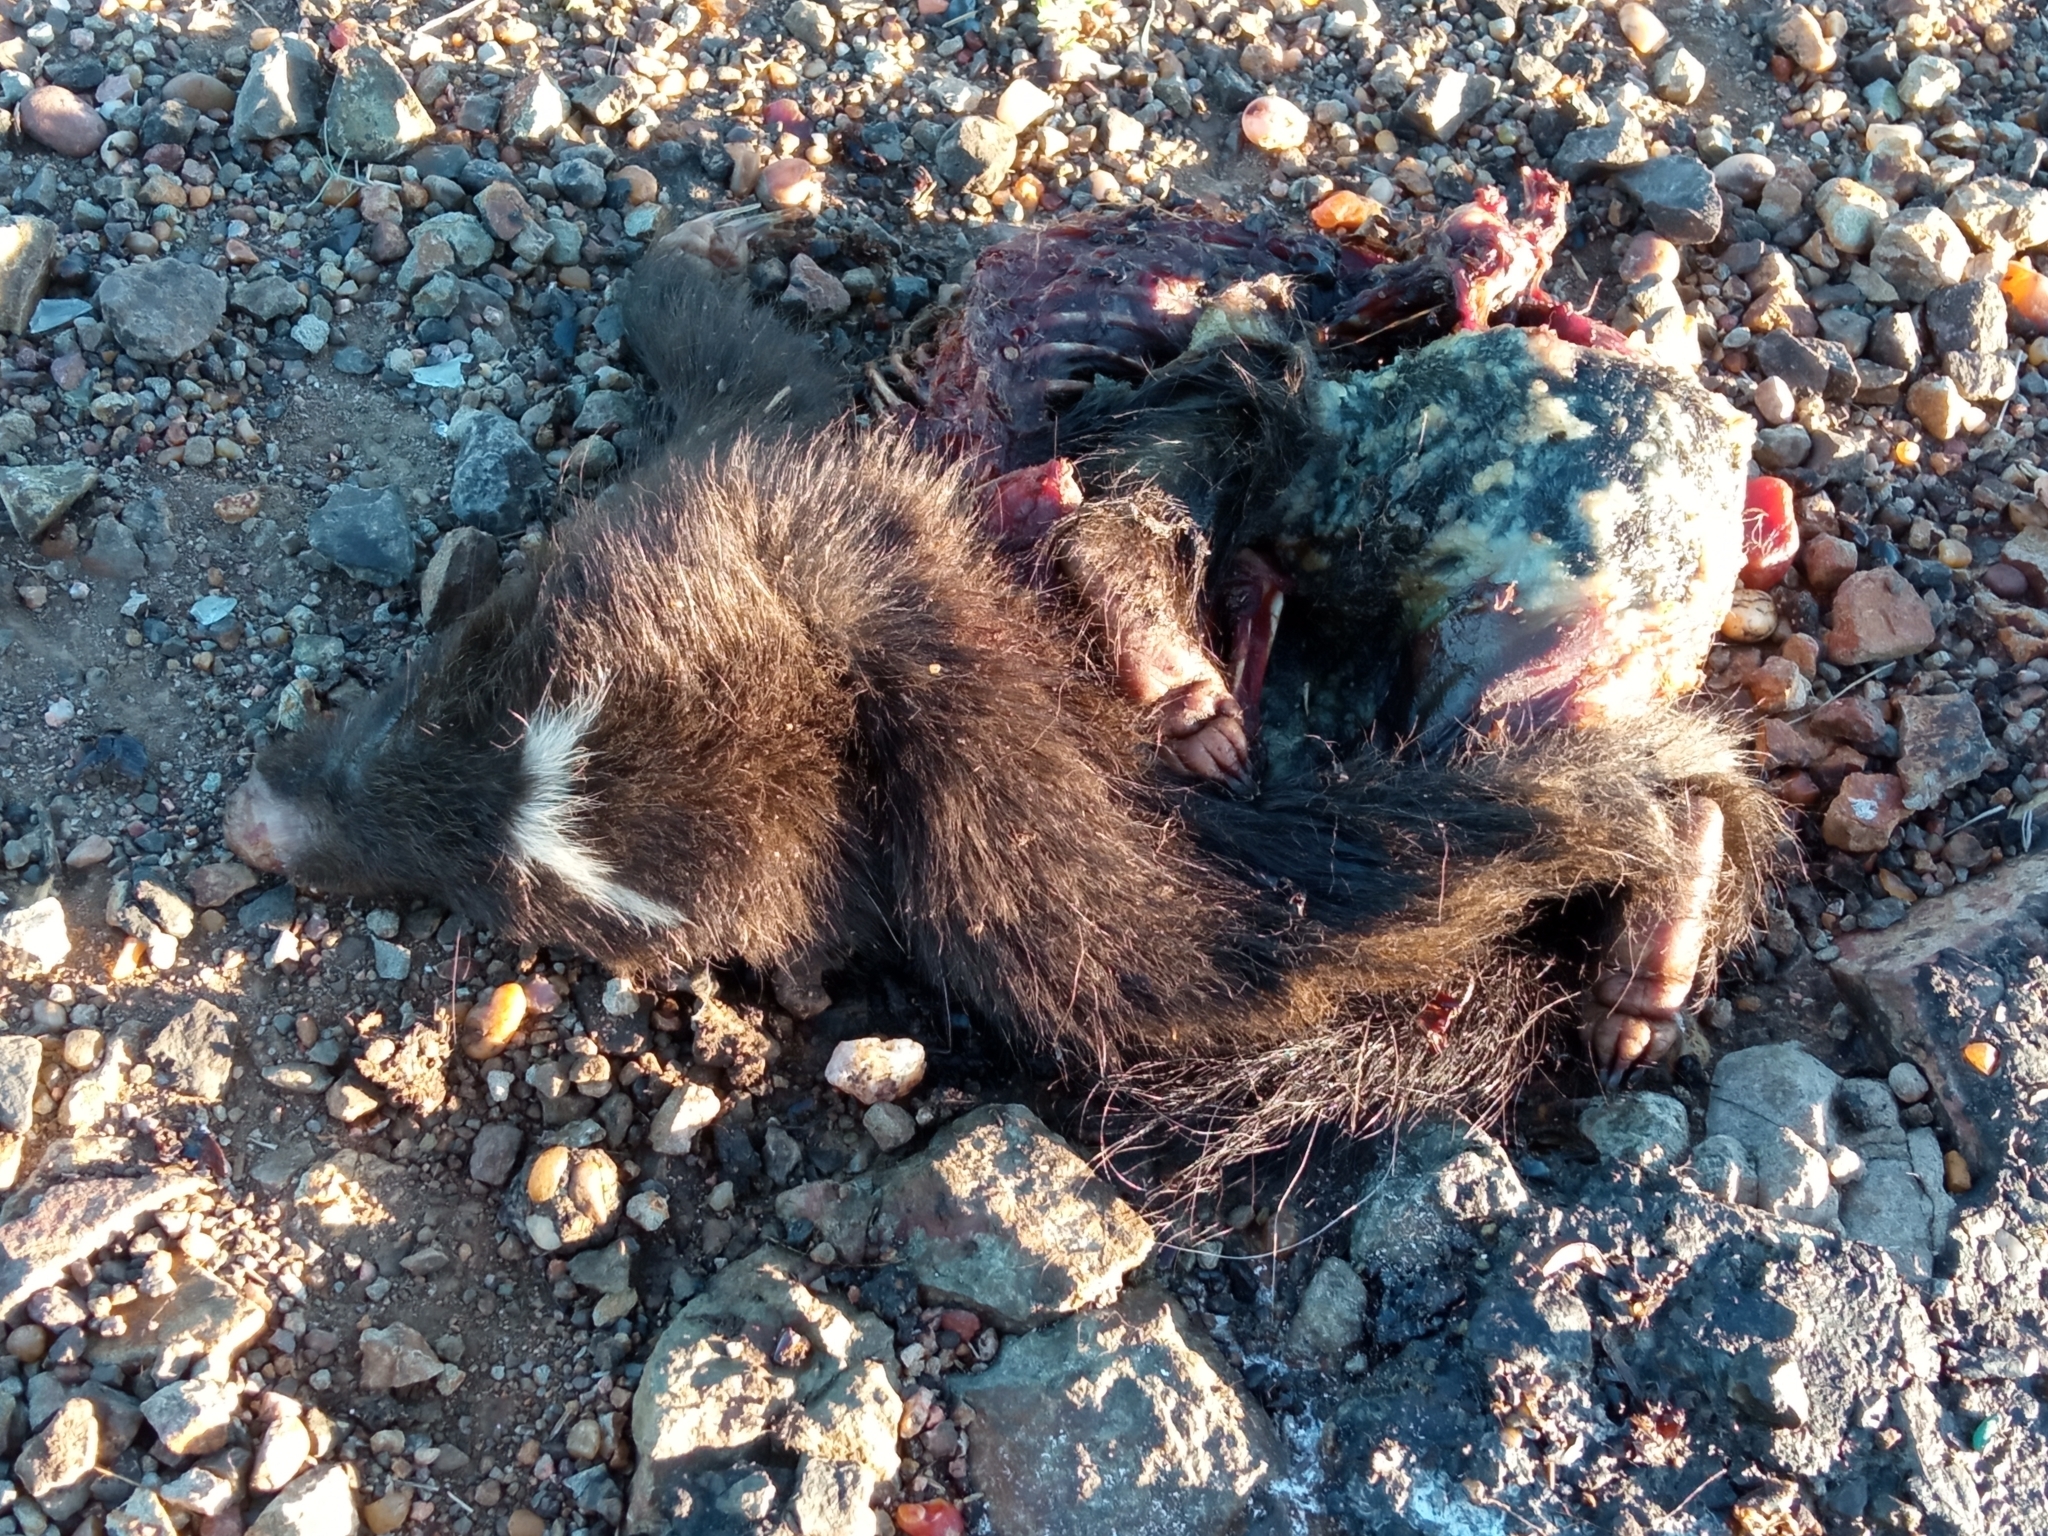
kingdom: Animalia
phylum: Chordata
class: Mammalia
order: Carnivora
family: Mephitidae
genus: Conepatus
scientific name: Conepatus chinga
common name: Molina's hog-nosed skunk
